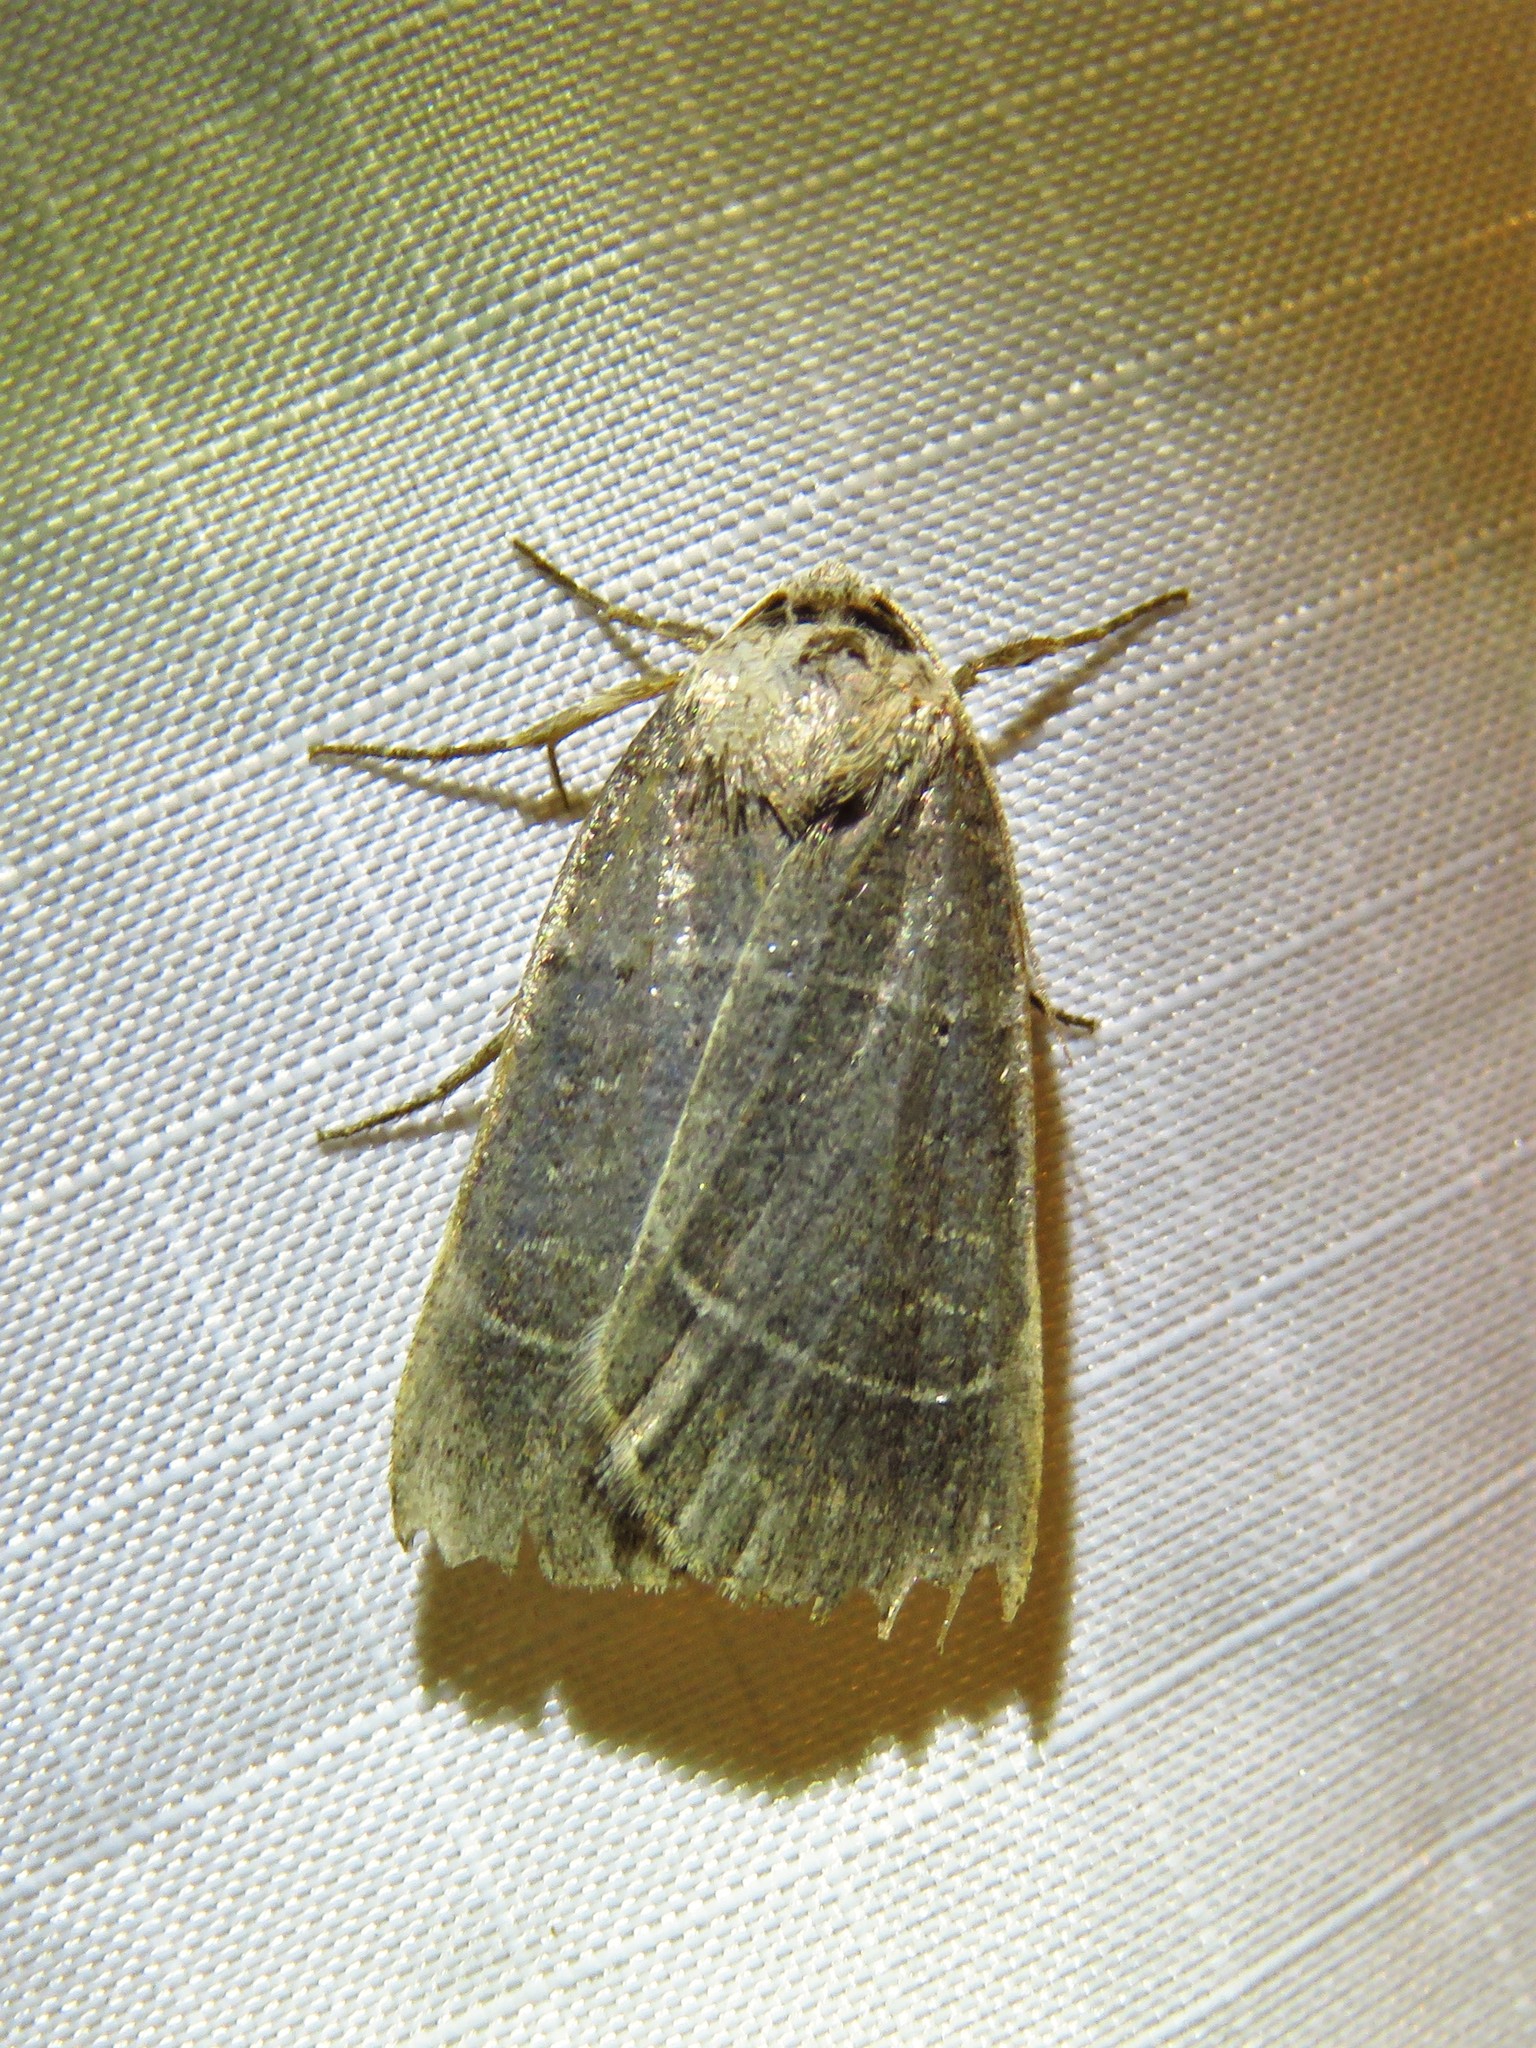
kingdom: Animalia
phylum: Arthropoda
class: Insecta
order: Lepidoptera
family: Noctuidae
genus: Agnorisma
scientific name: Agnorisma badinodis
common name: Pale-banded dart
